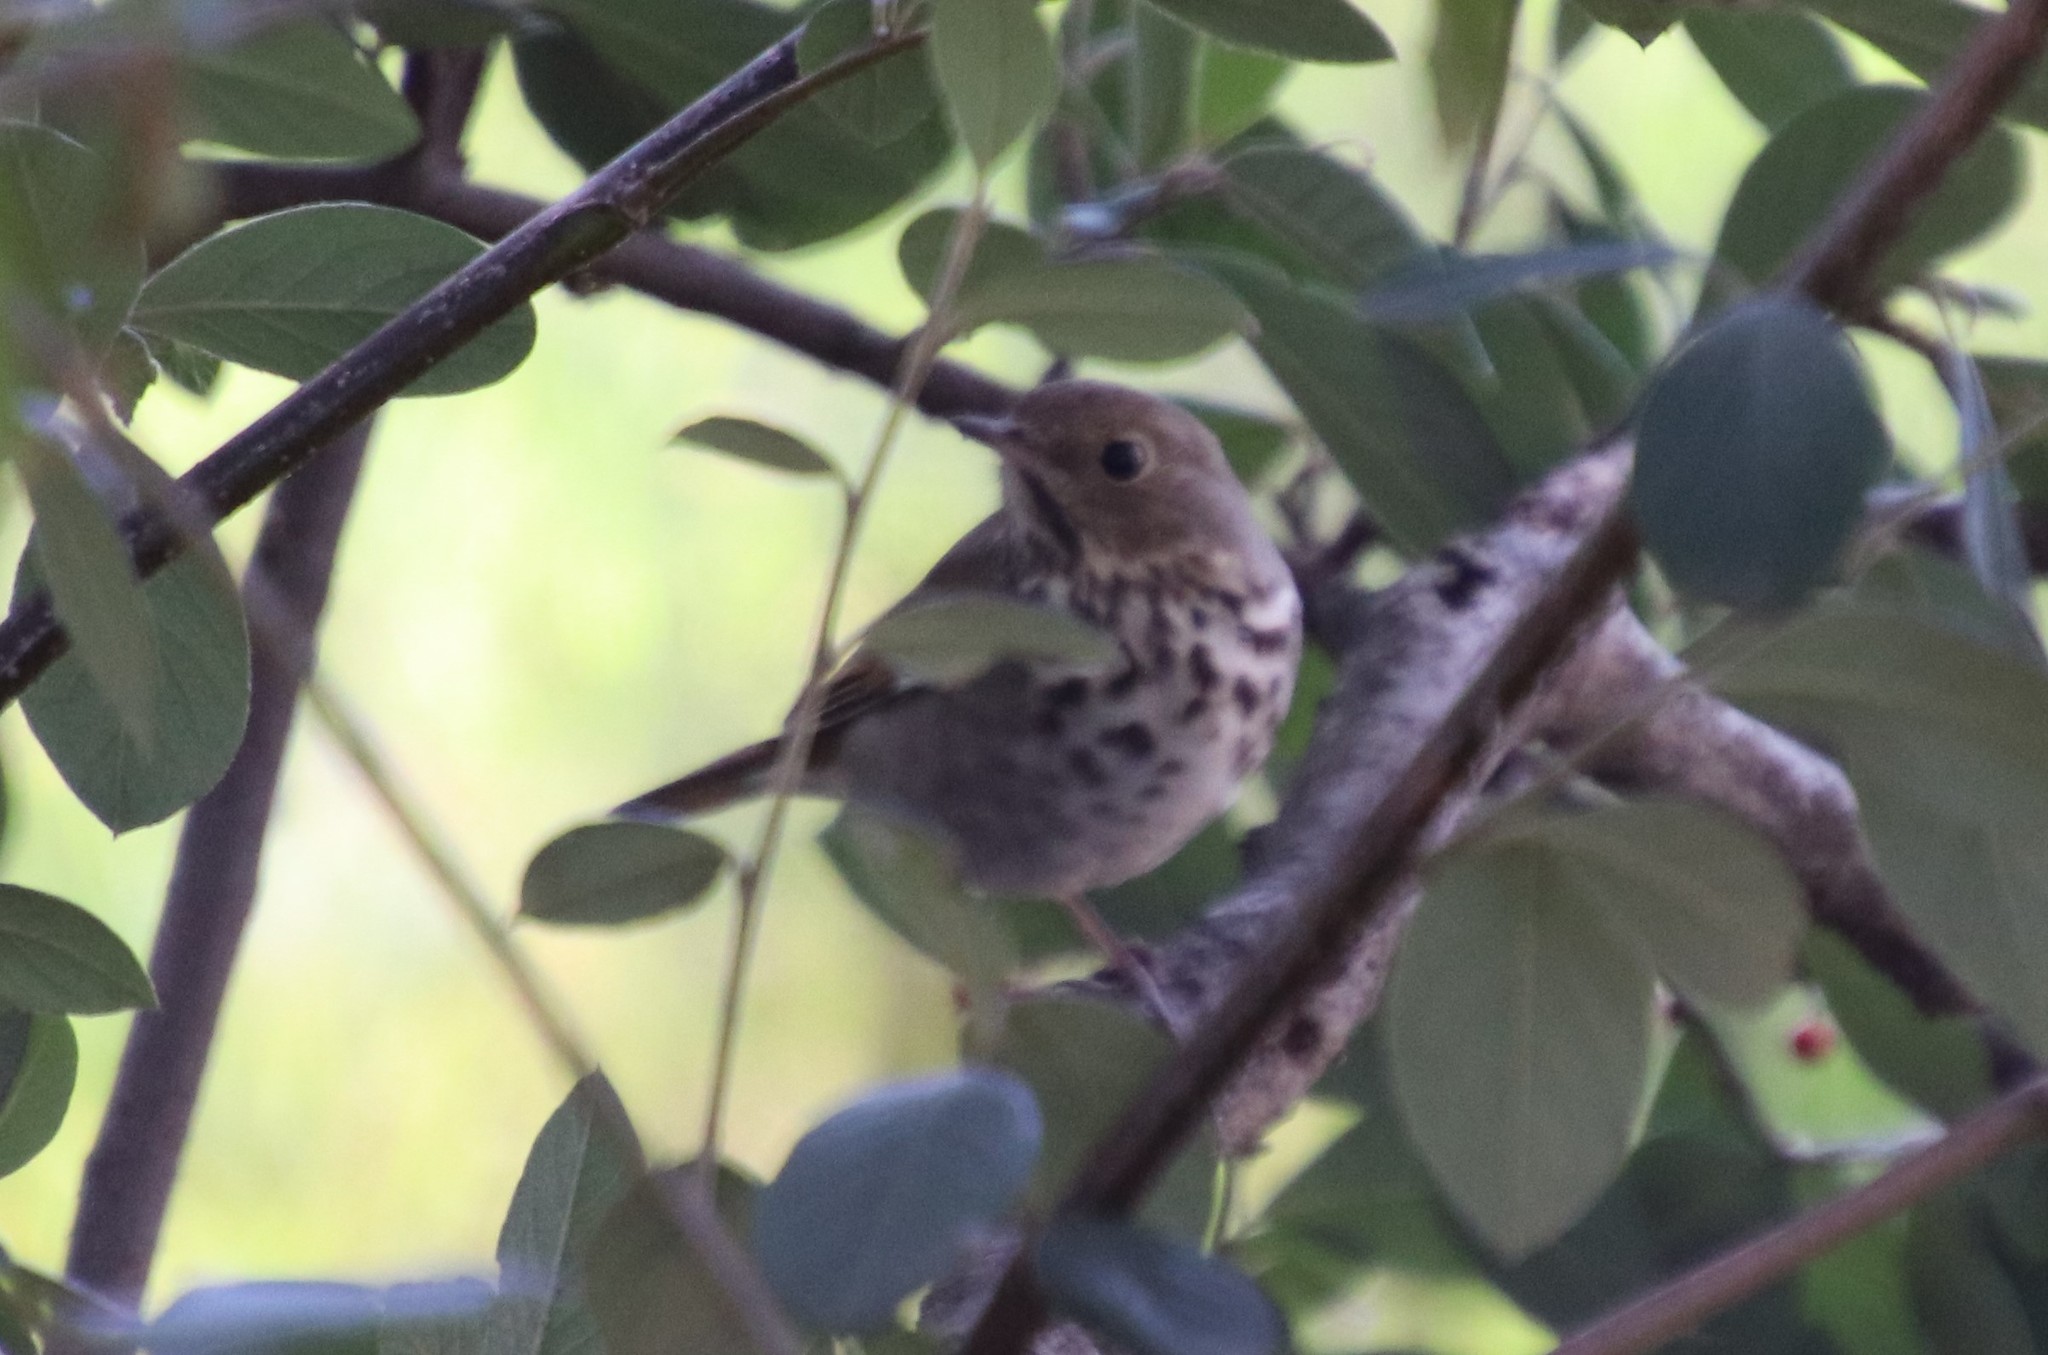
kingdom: Animalia
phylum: Chordata
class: Aves
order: Passeriformes
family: Turdidae
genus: Catharus
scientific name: Catharus guttatus
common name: Hermit thrush
